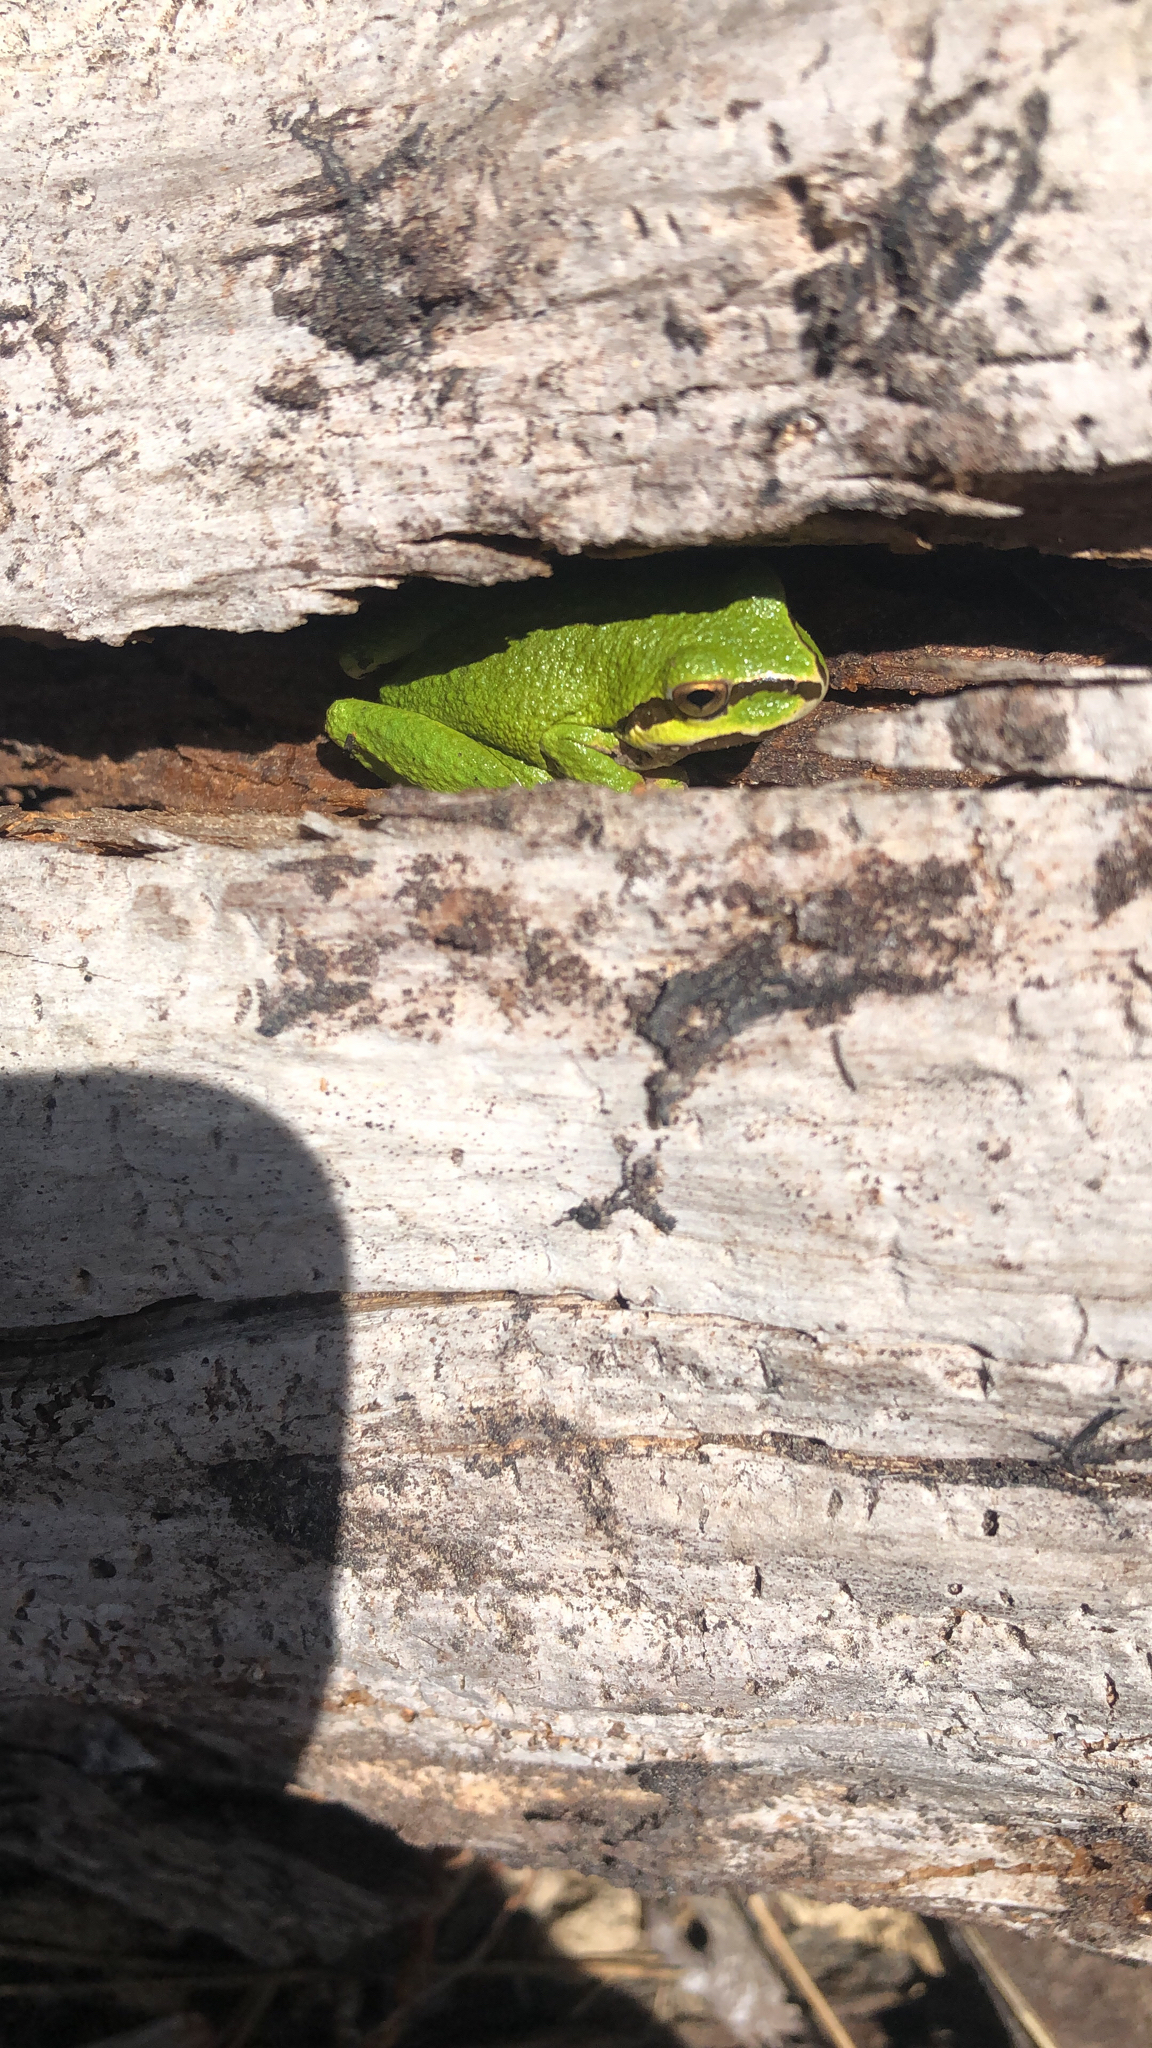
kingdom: Animalia
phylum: Chordata
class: Amphibia
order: Anura
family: Hylidae
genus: Pseudacris
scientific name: Pseudacris regilla
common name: Pacific chorus frog
